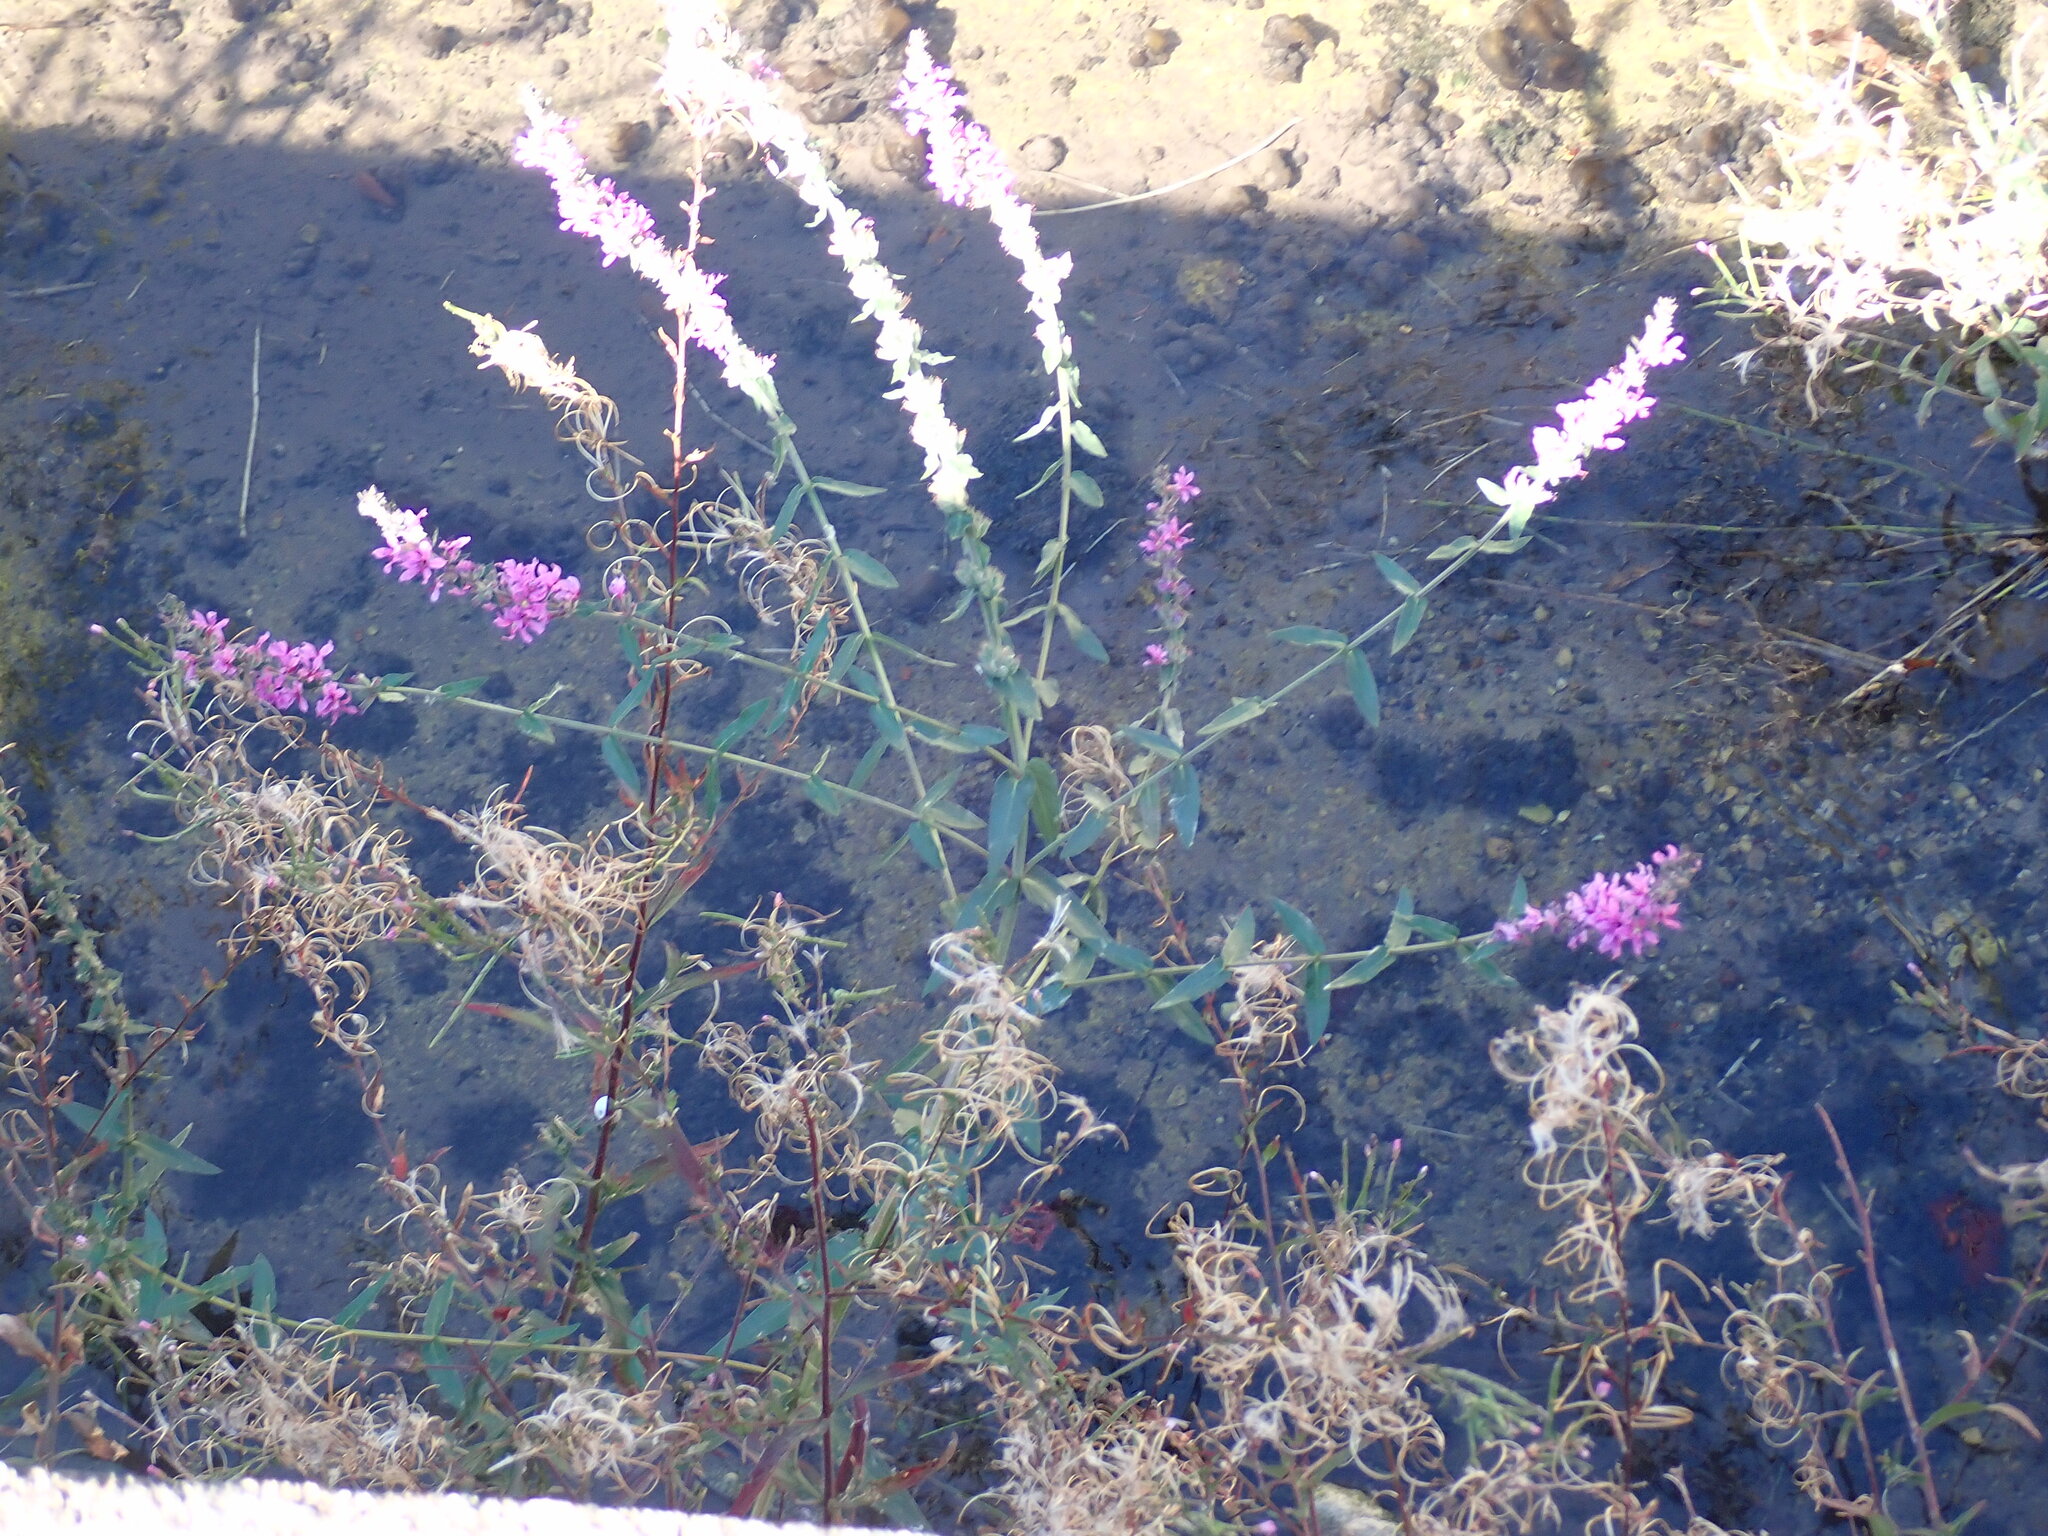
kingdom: Plantae
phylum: Tracheophyta
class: Magnoliopsida
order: Myrtales
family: Lythraceae
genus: Lythrum
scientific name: Lythrum salicaria
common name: Purple loosestrife
